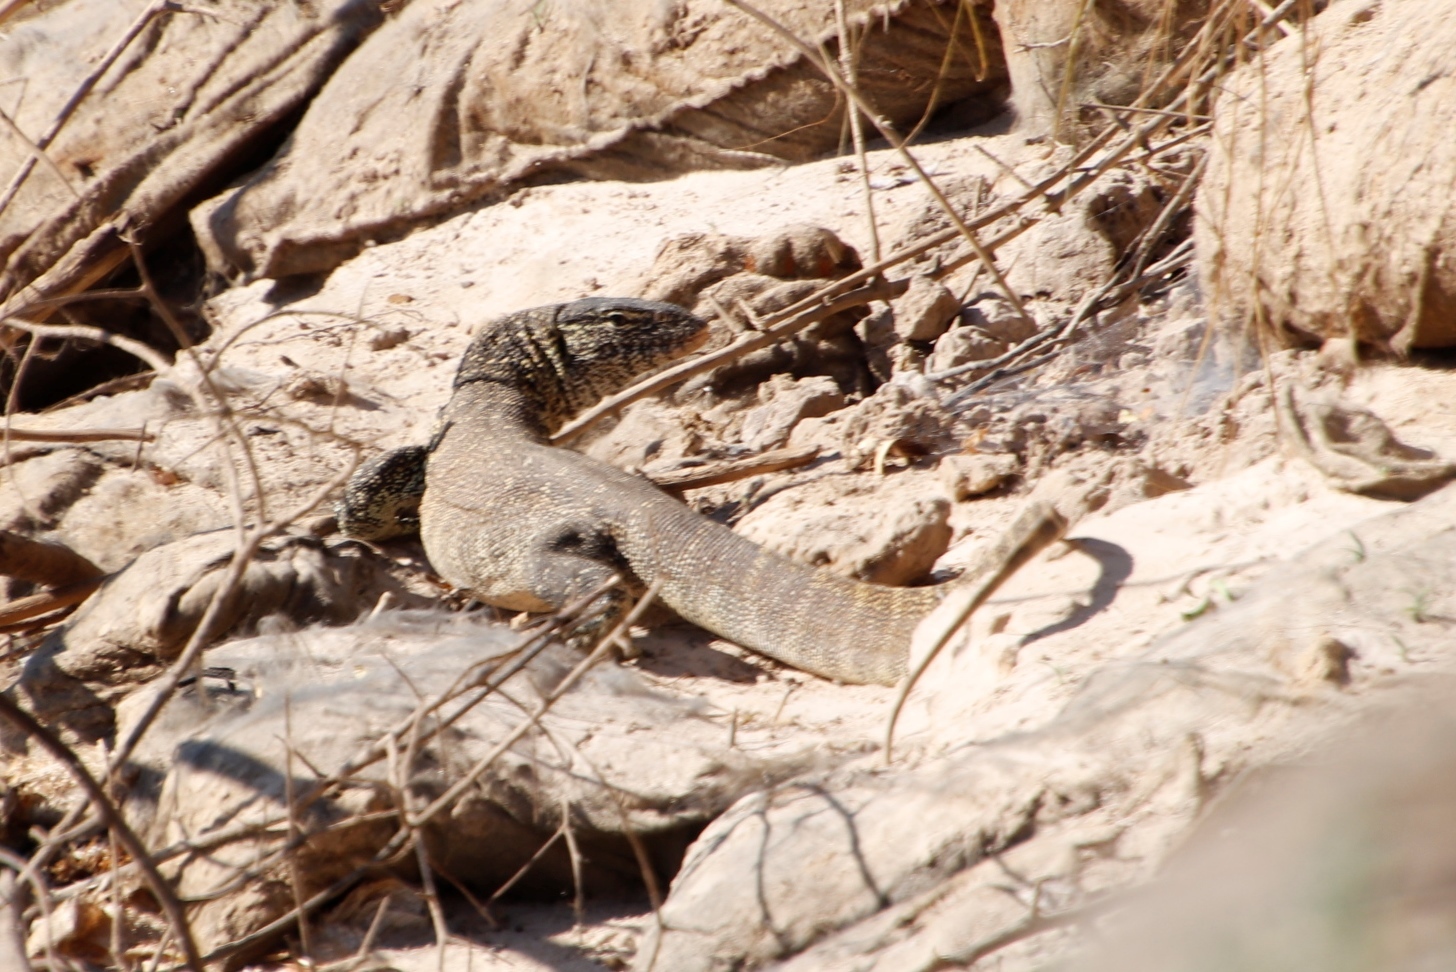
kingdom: Animalia
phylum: Chordata
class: Squamata
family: Varanidae
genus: Varanus
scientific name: Varanus niloticus
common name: Nile monitor
